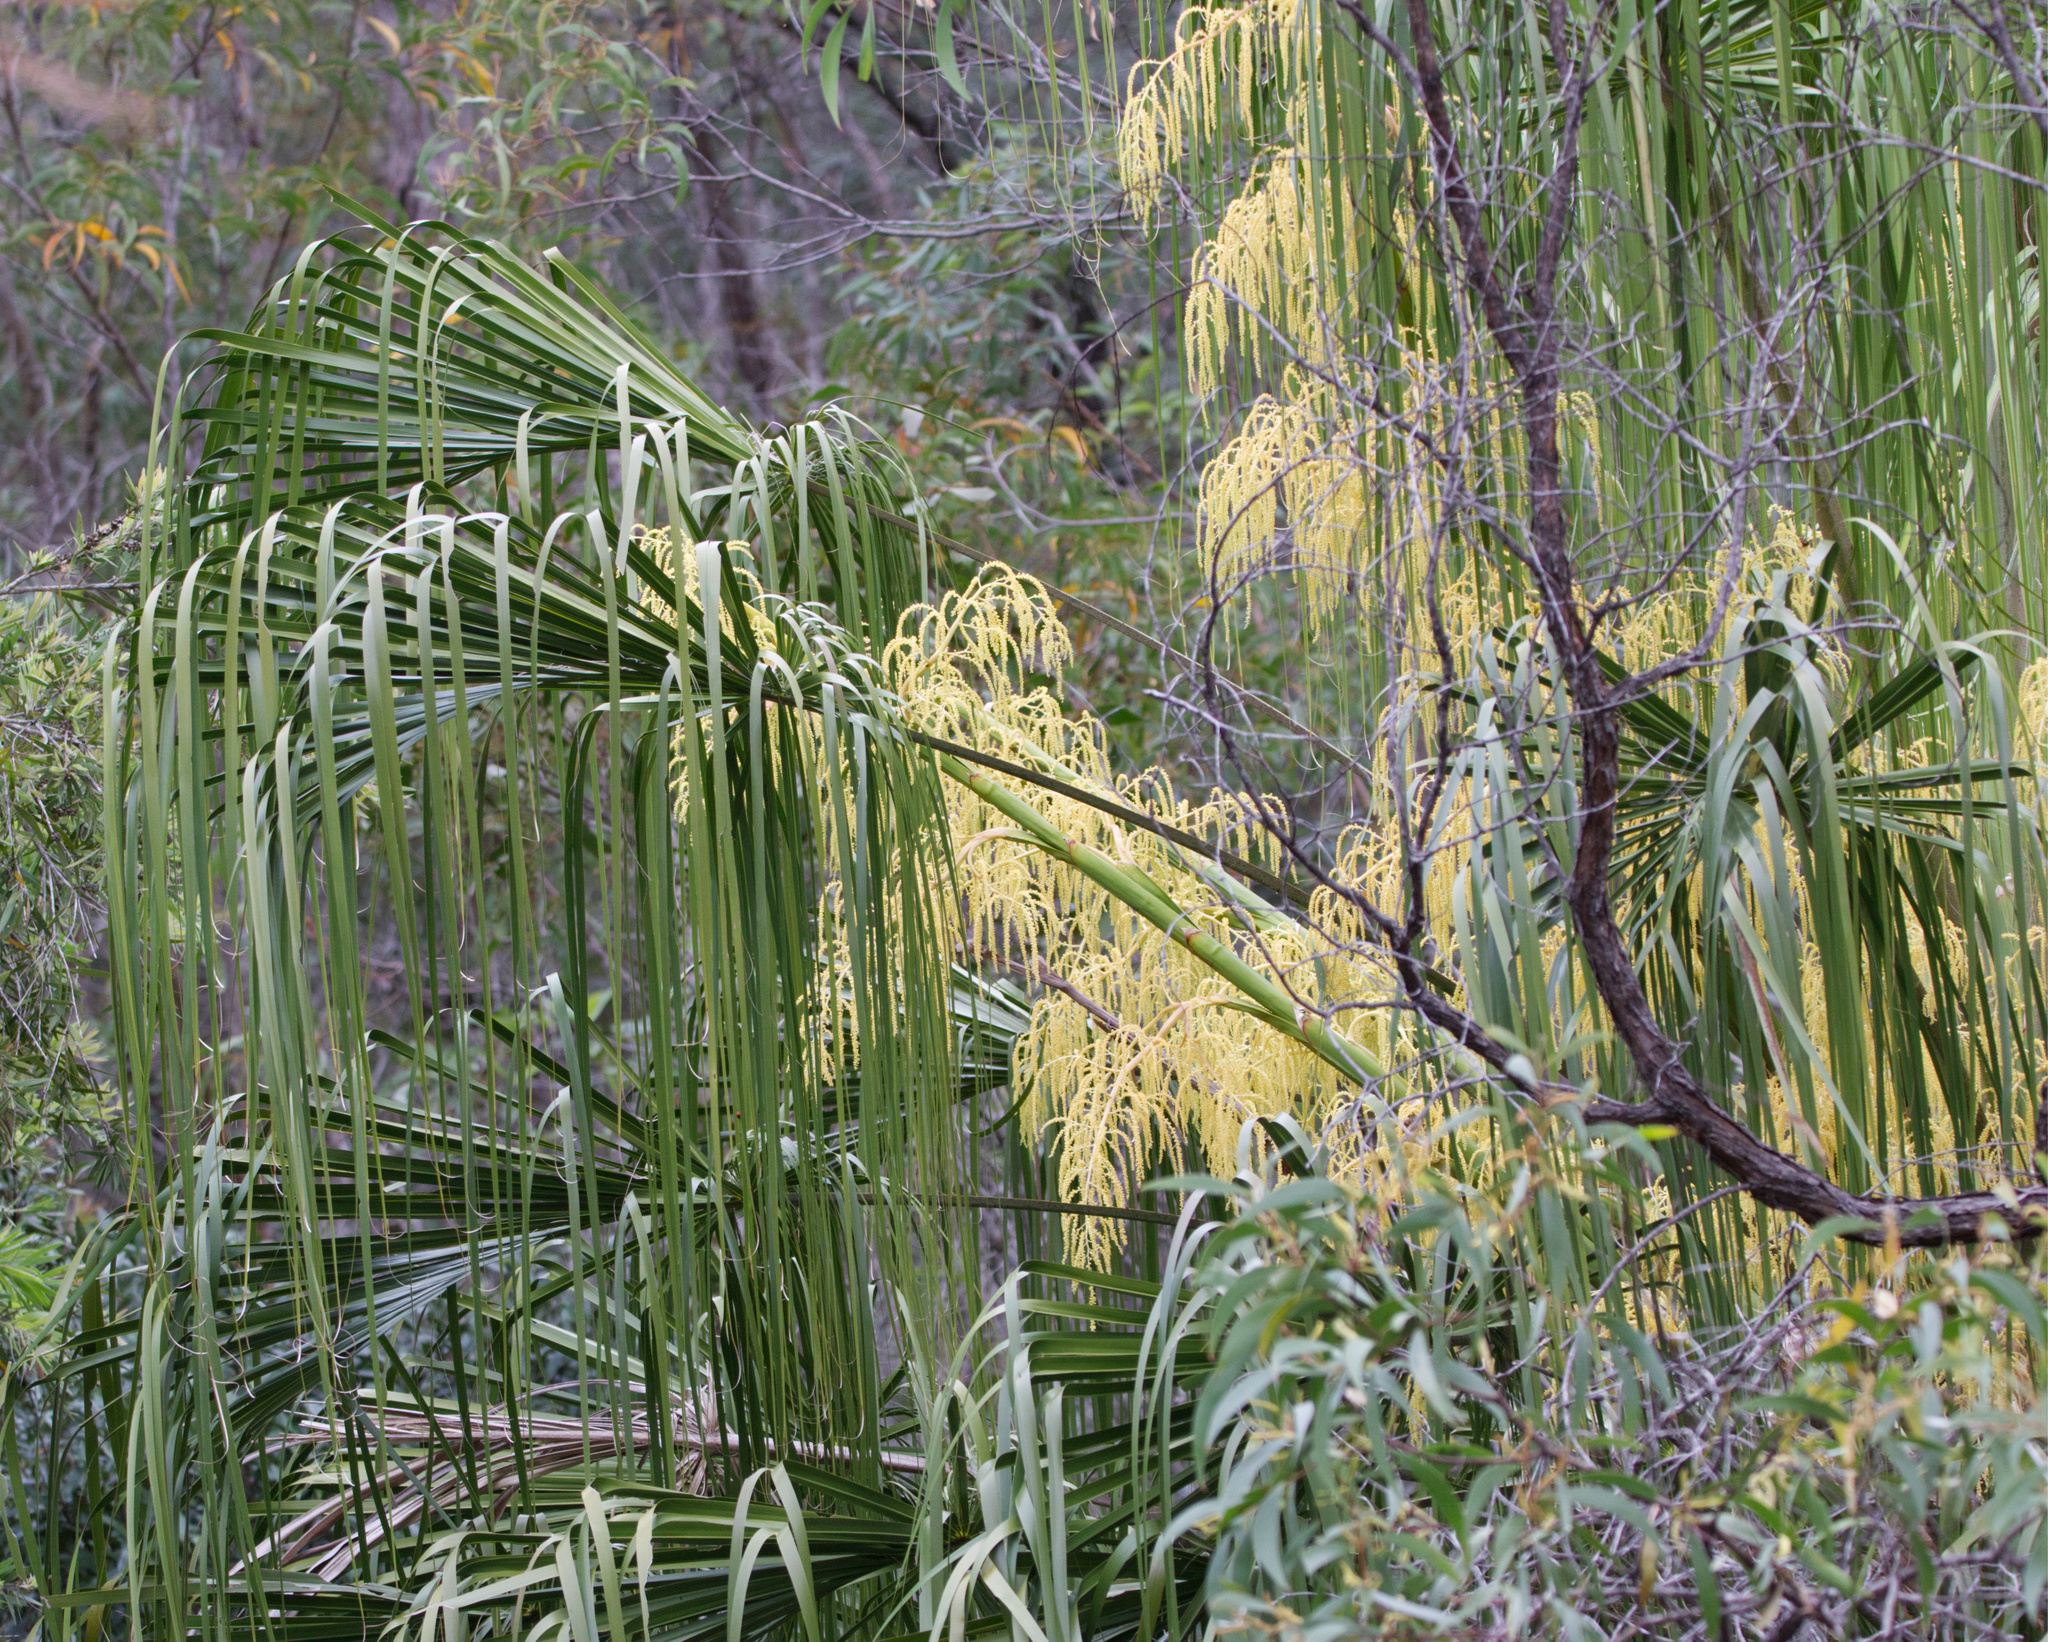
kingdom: Plantae
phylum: Tracheophyta
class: Liliopsida
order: Arecales
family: Arecaceae
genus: Livistona
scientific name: Livistona decora
